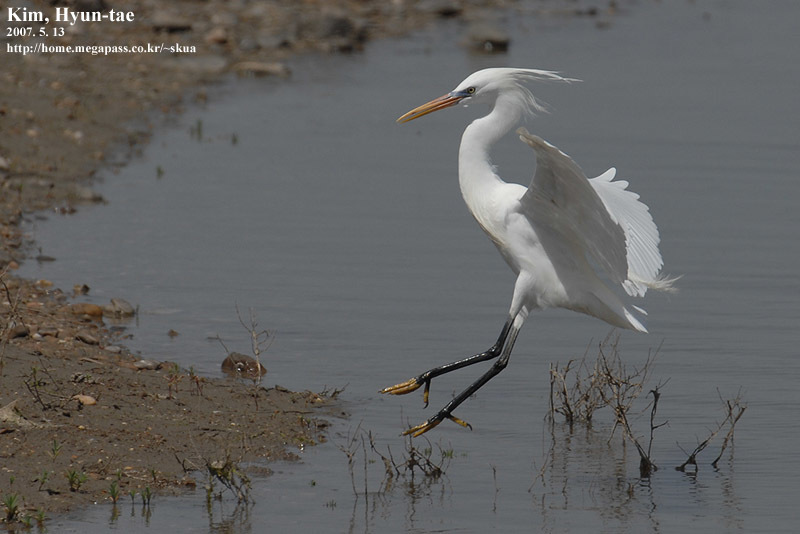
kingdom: Animalia
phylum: Chordata
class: Aves
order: Pelecaniformes
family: Ardeidae
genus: Egretta
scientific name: Egretta eulophotes
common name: Chinese egret
